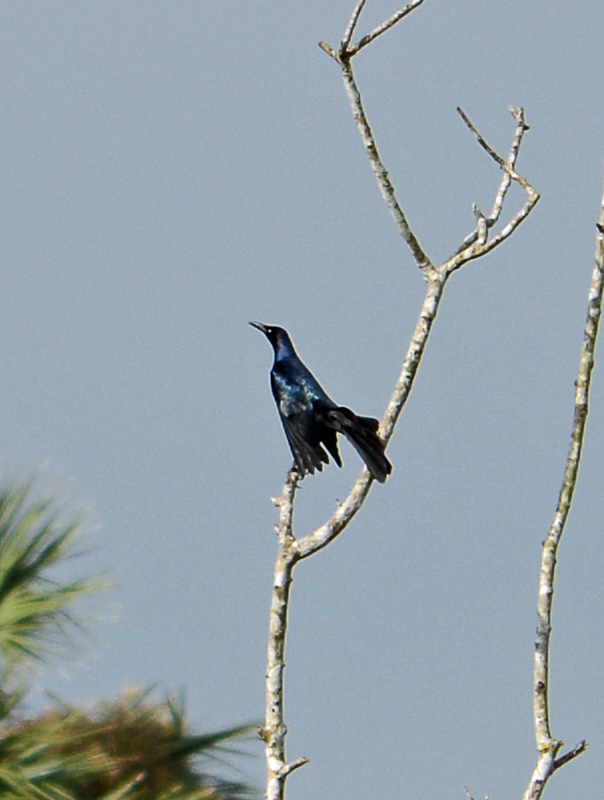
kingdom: Animalia
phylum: Chordata
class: Aves
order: Passeriformes
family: Icteridae
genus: Quiscalus
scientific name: Quiscalus mexicanus
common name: Great-tailed grackle
